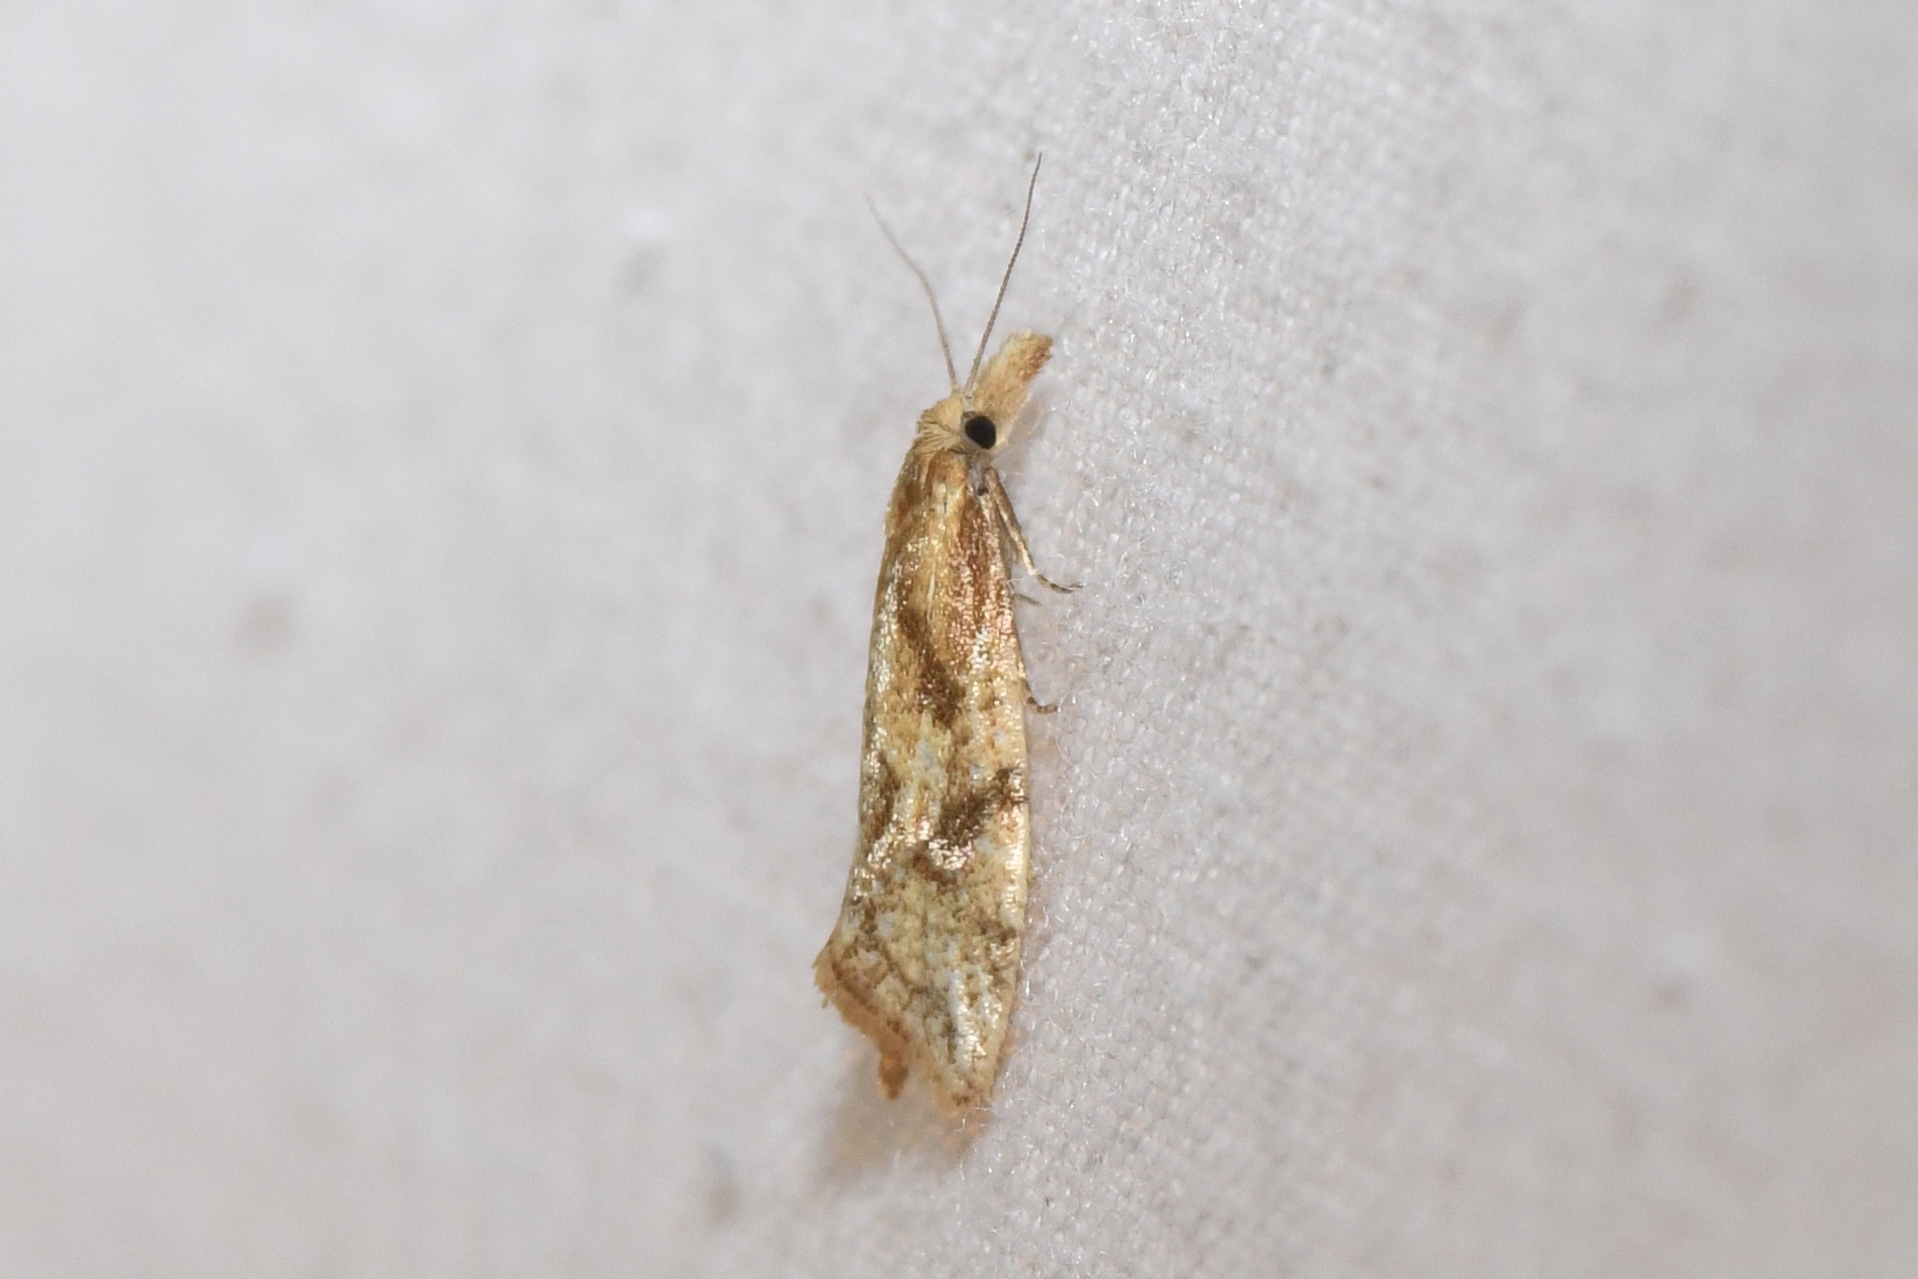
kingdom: Animalia
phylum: Arthropoda
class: Insecta
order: Lepidoptera
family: Tortricidae
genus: Aethes
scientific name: Aethes biscana
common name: Reddish aethes
